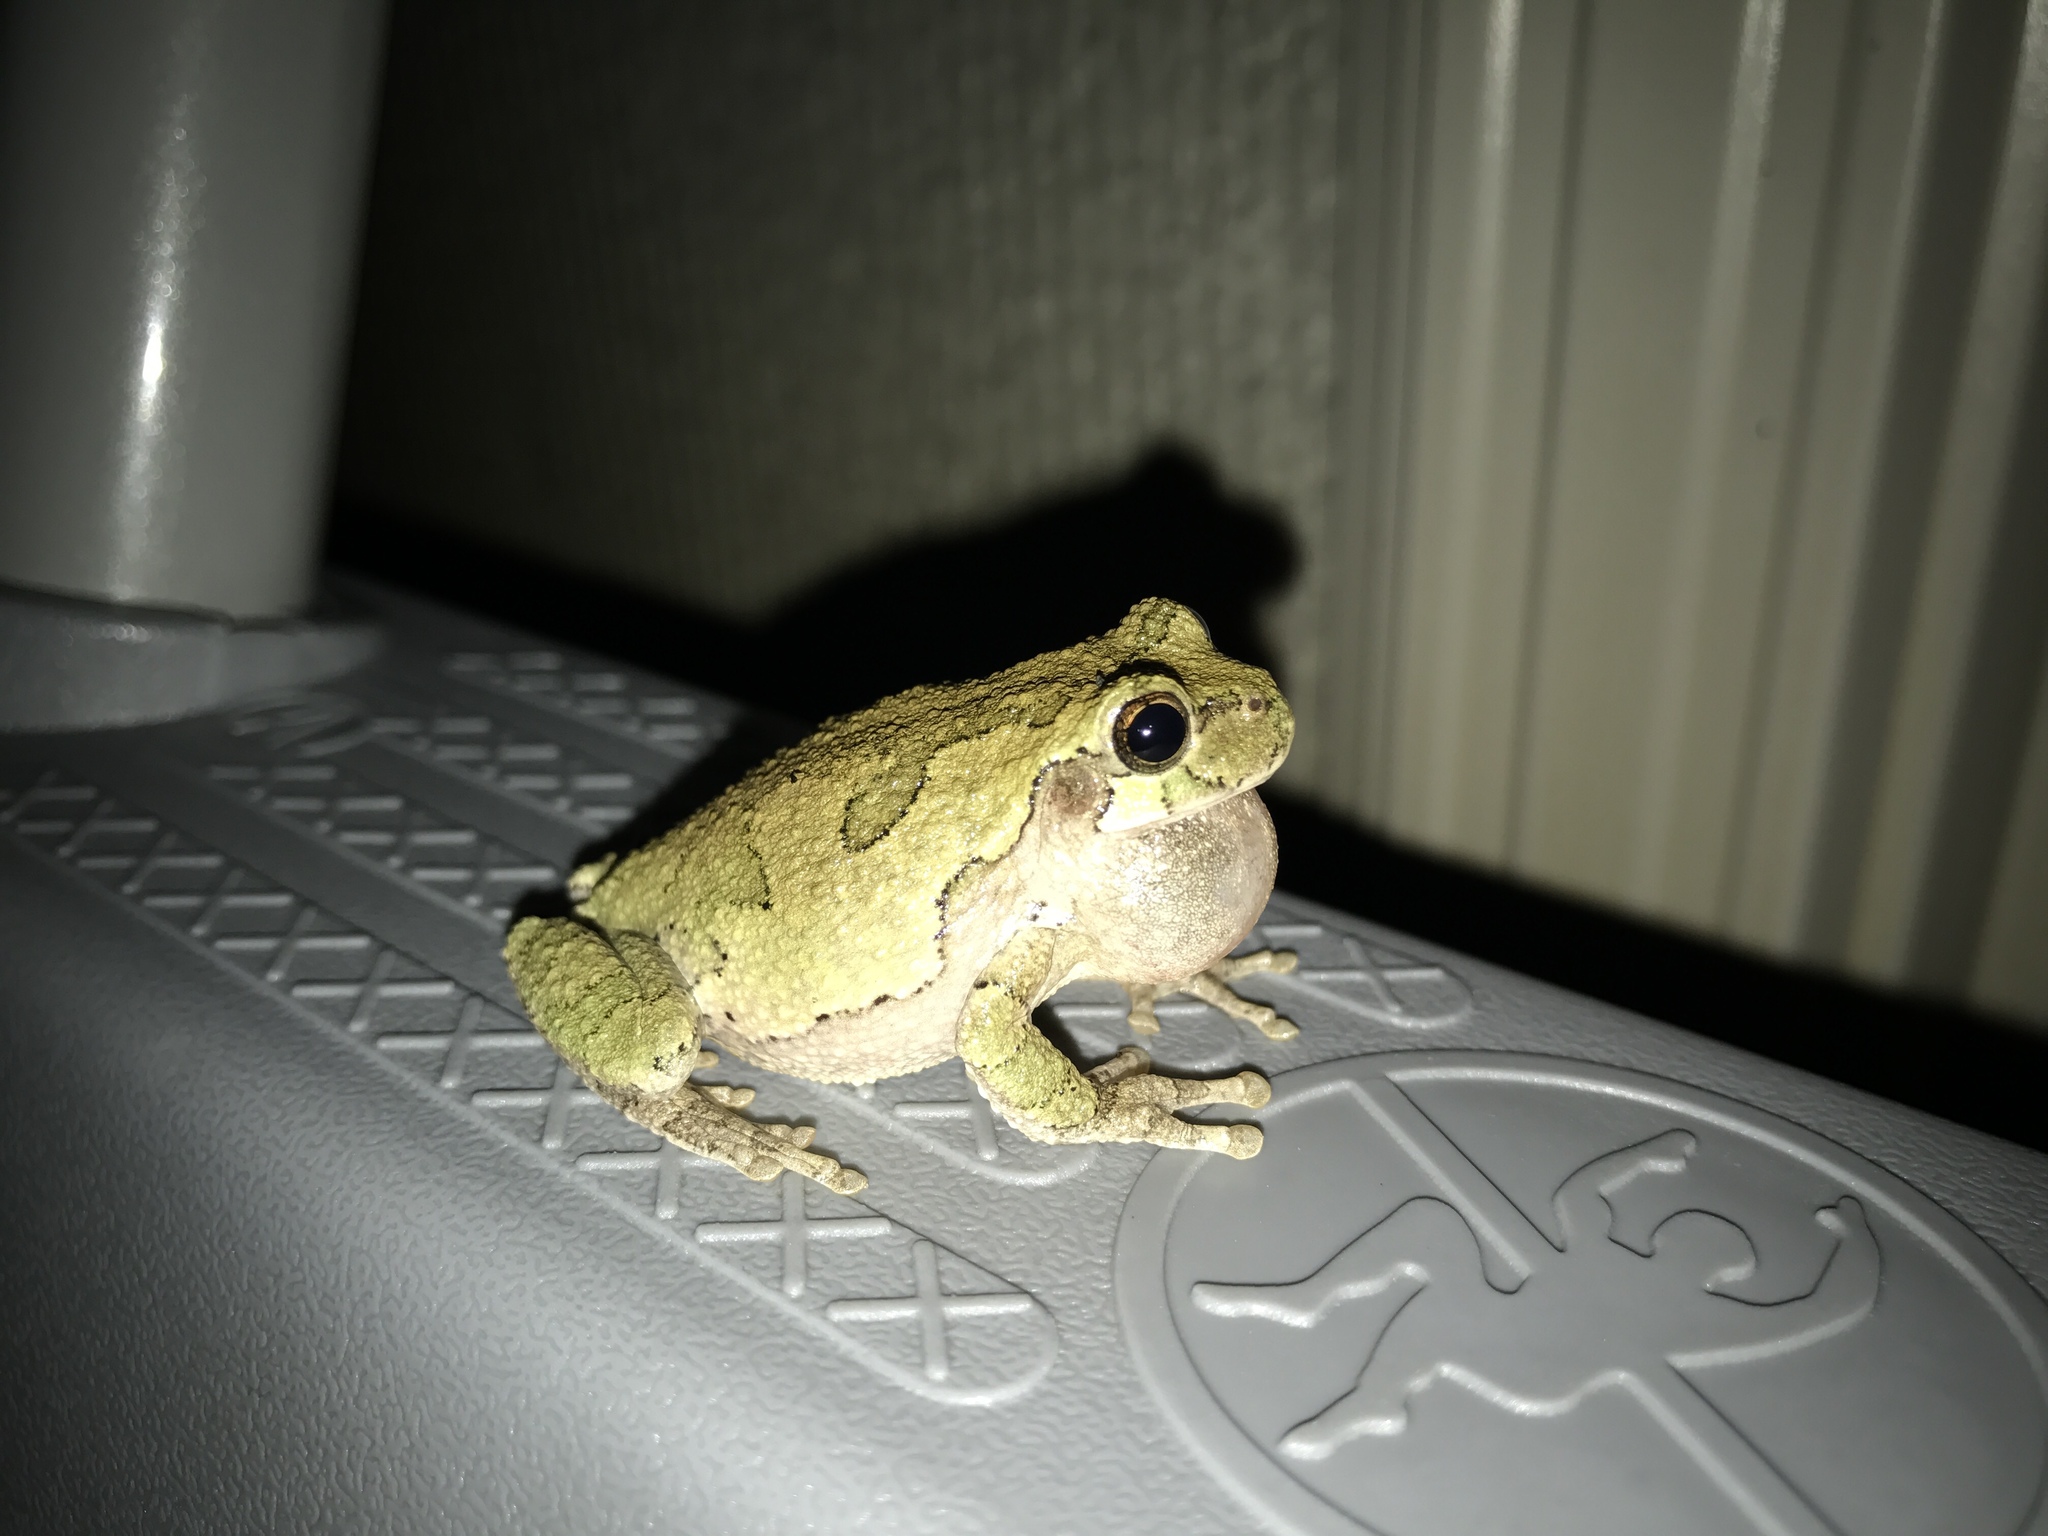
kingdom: Animalia
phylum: Chordata
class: Amphibia
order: Anura
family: Hylidae
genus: Hyla
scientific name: Hyla
